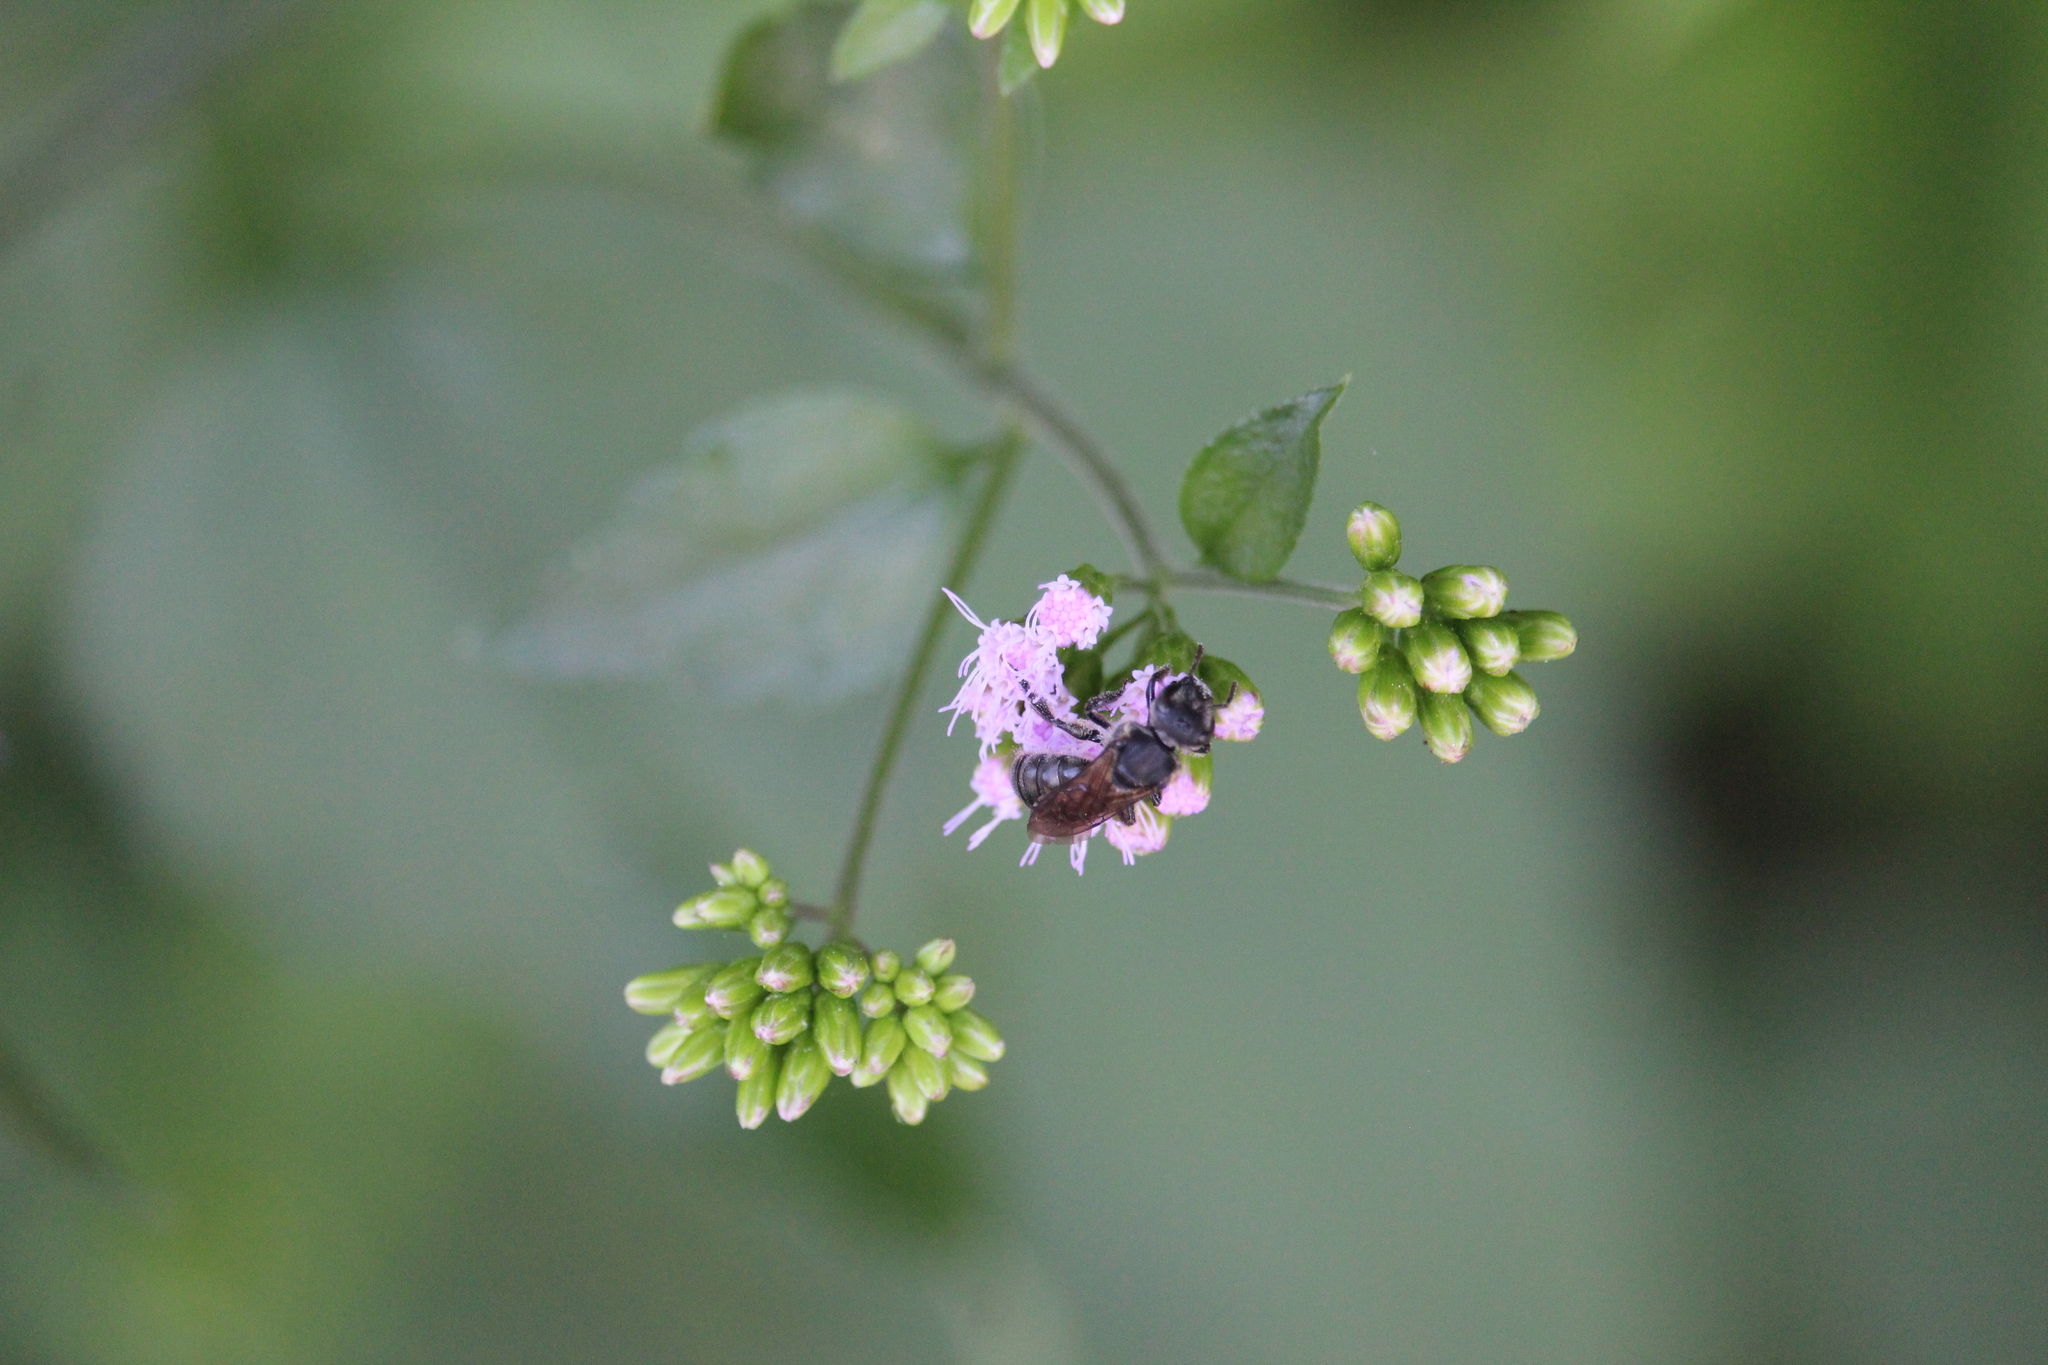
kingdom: Animalia
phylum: Arthropoda
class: Insecta
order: Hymenoptera
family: Halictidae
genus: Augochlora
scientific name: Augochlora nigrocyanea
